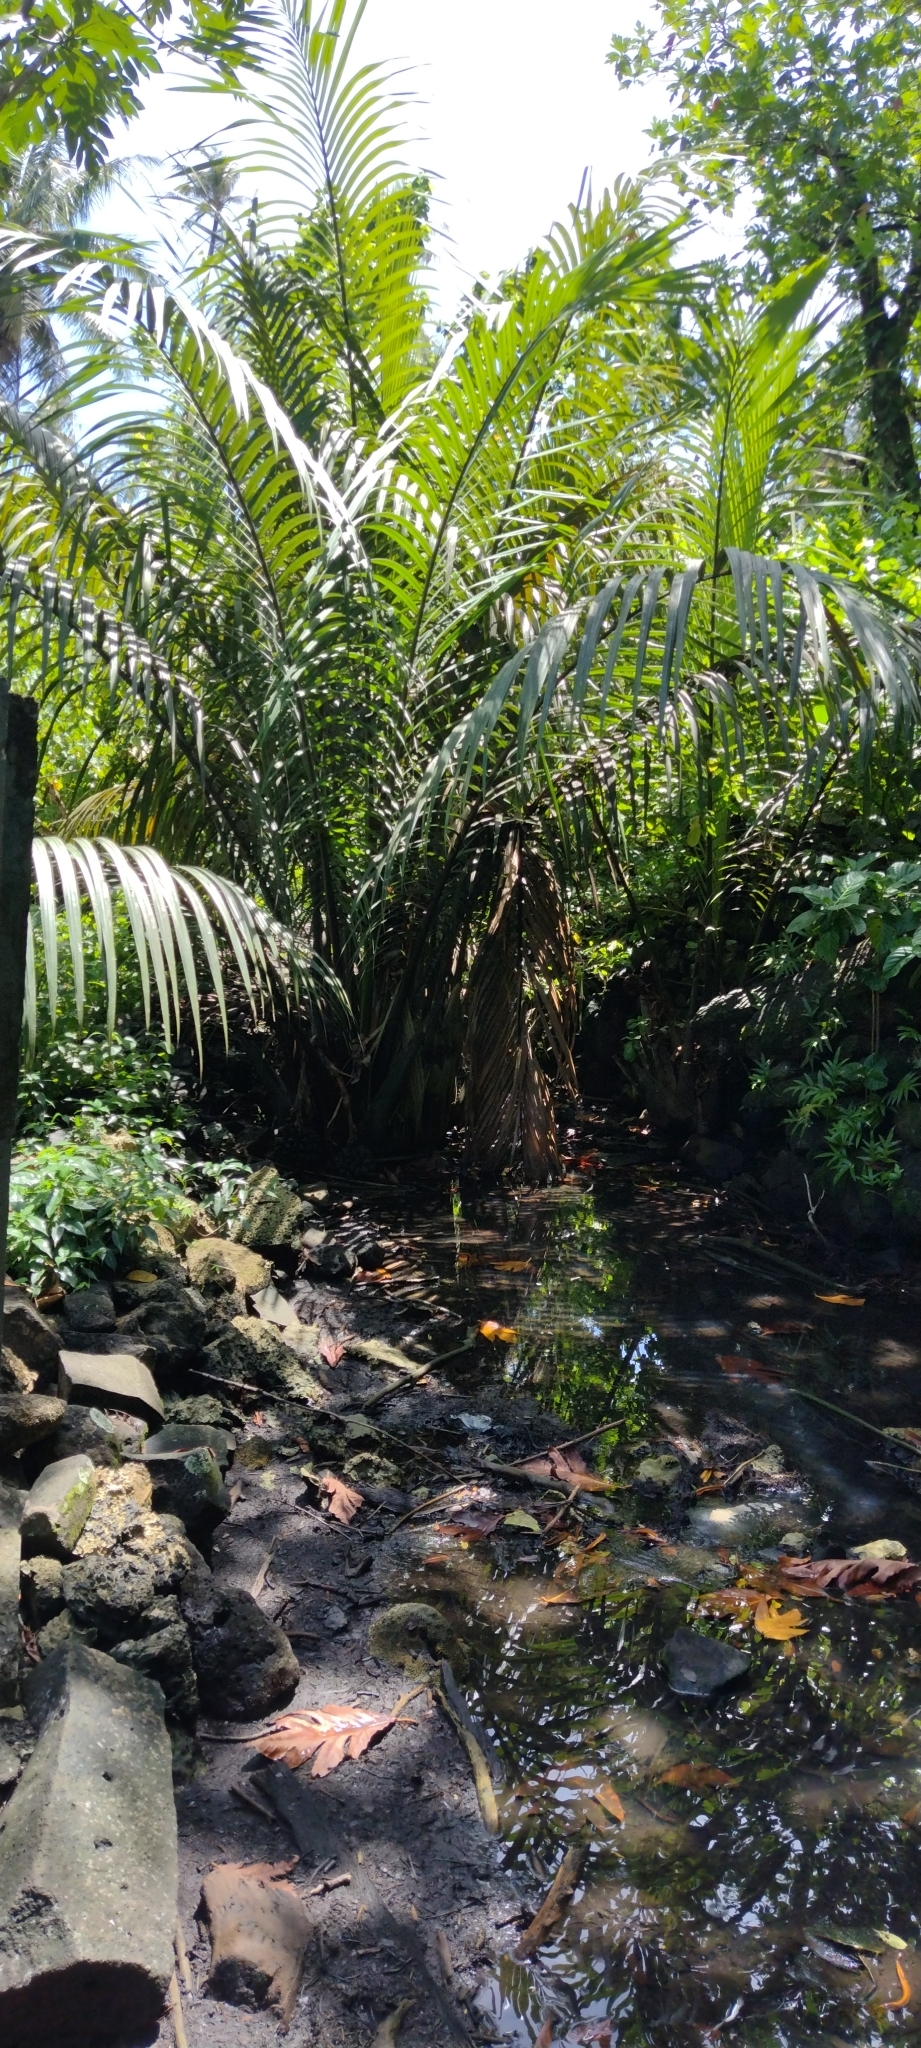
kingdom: Plantae
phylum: Tracheophyta
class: Liliopsida
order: Arecales
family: Arecaceae
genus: Nypa
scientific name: Nypa fruticans
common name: Mangrove palm
